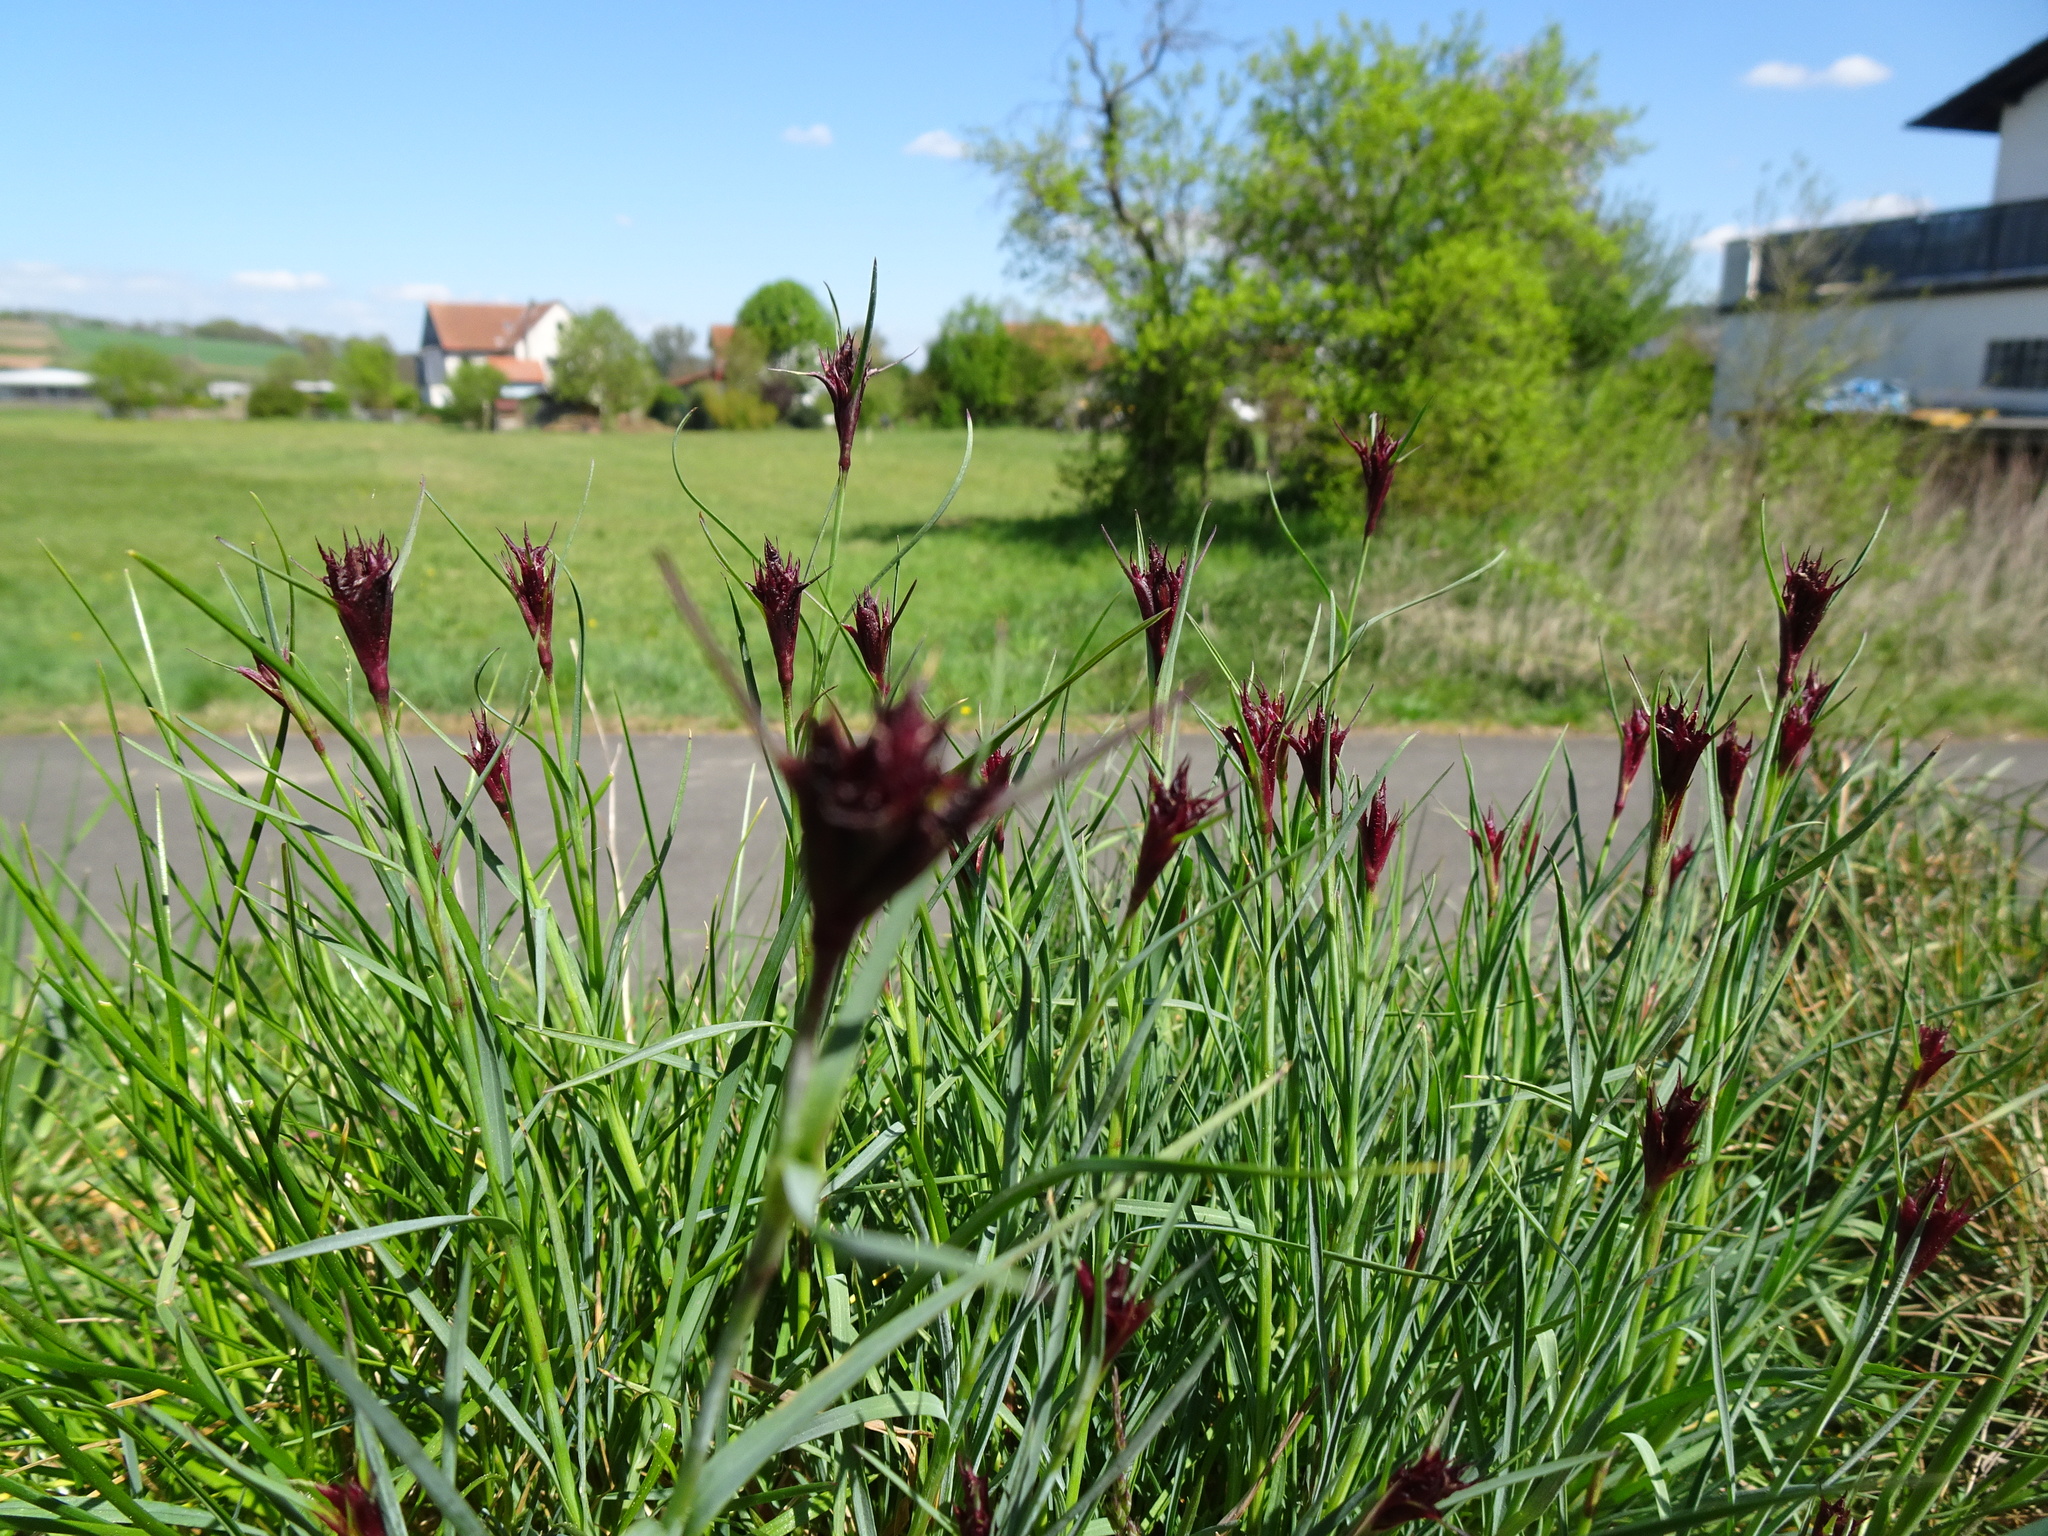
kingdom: Plantae
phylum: Tracheophyta
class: Magnoliopsida
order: Caryophyllales
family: Caryophyllaceae
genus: Dianthus
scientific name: Dianthus carthusianorum
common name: Carthusian pink
